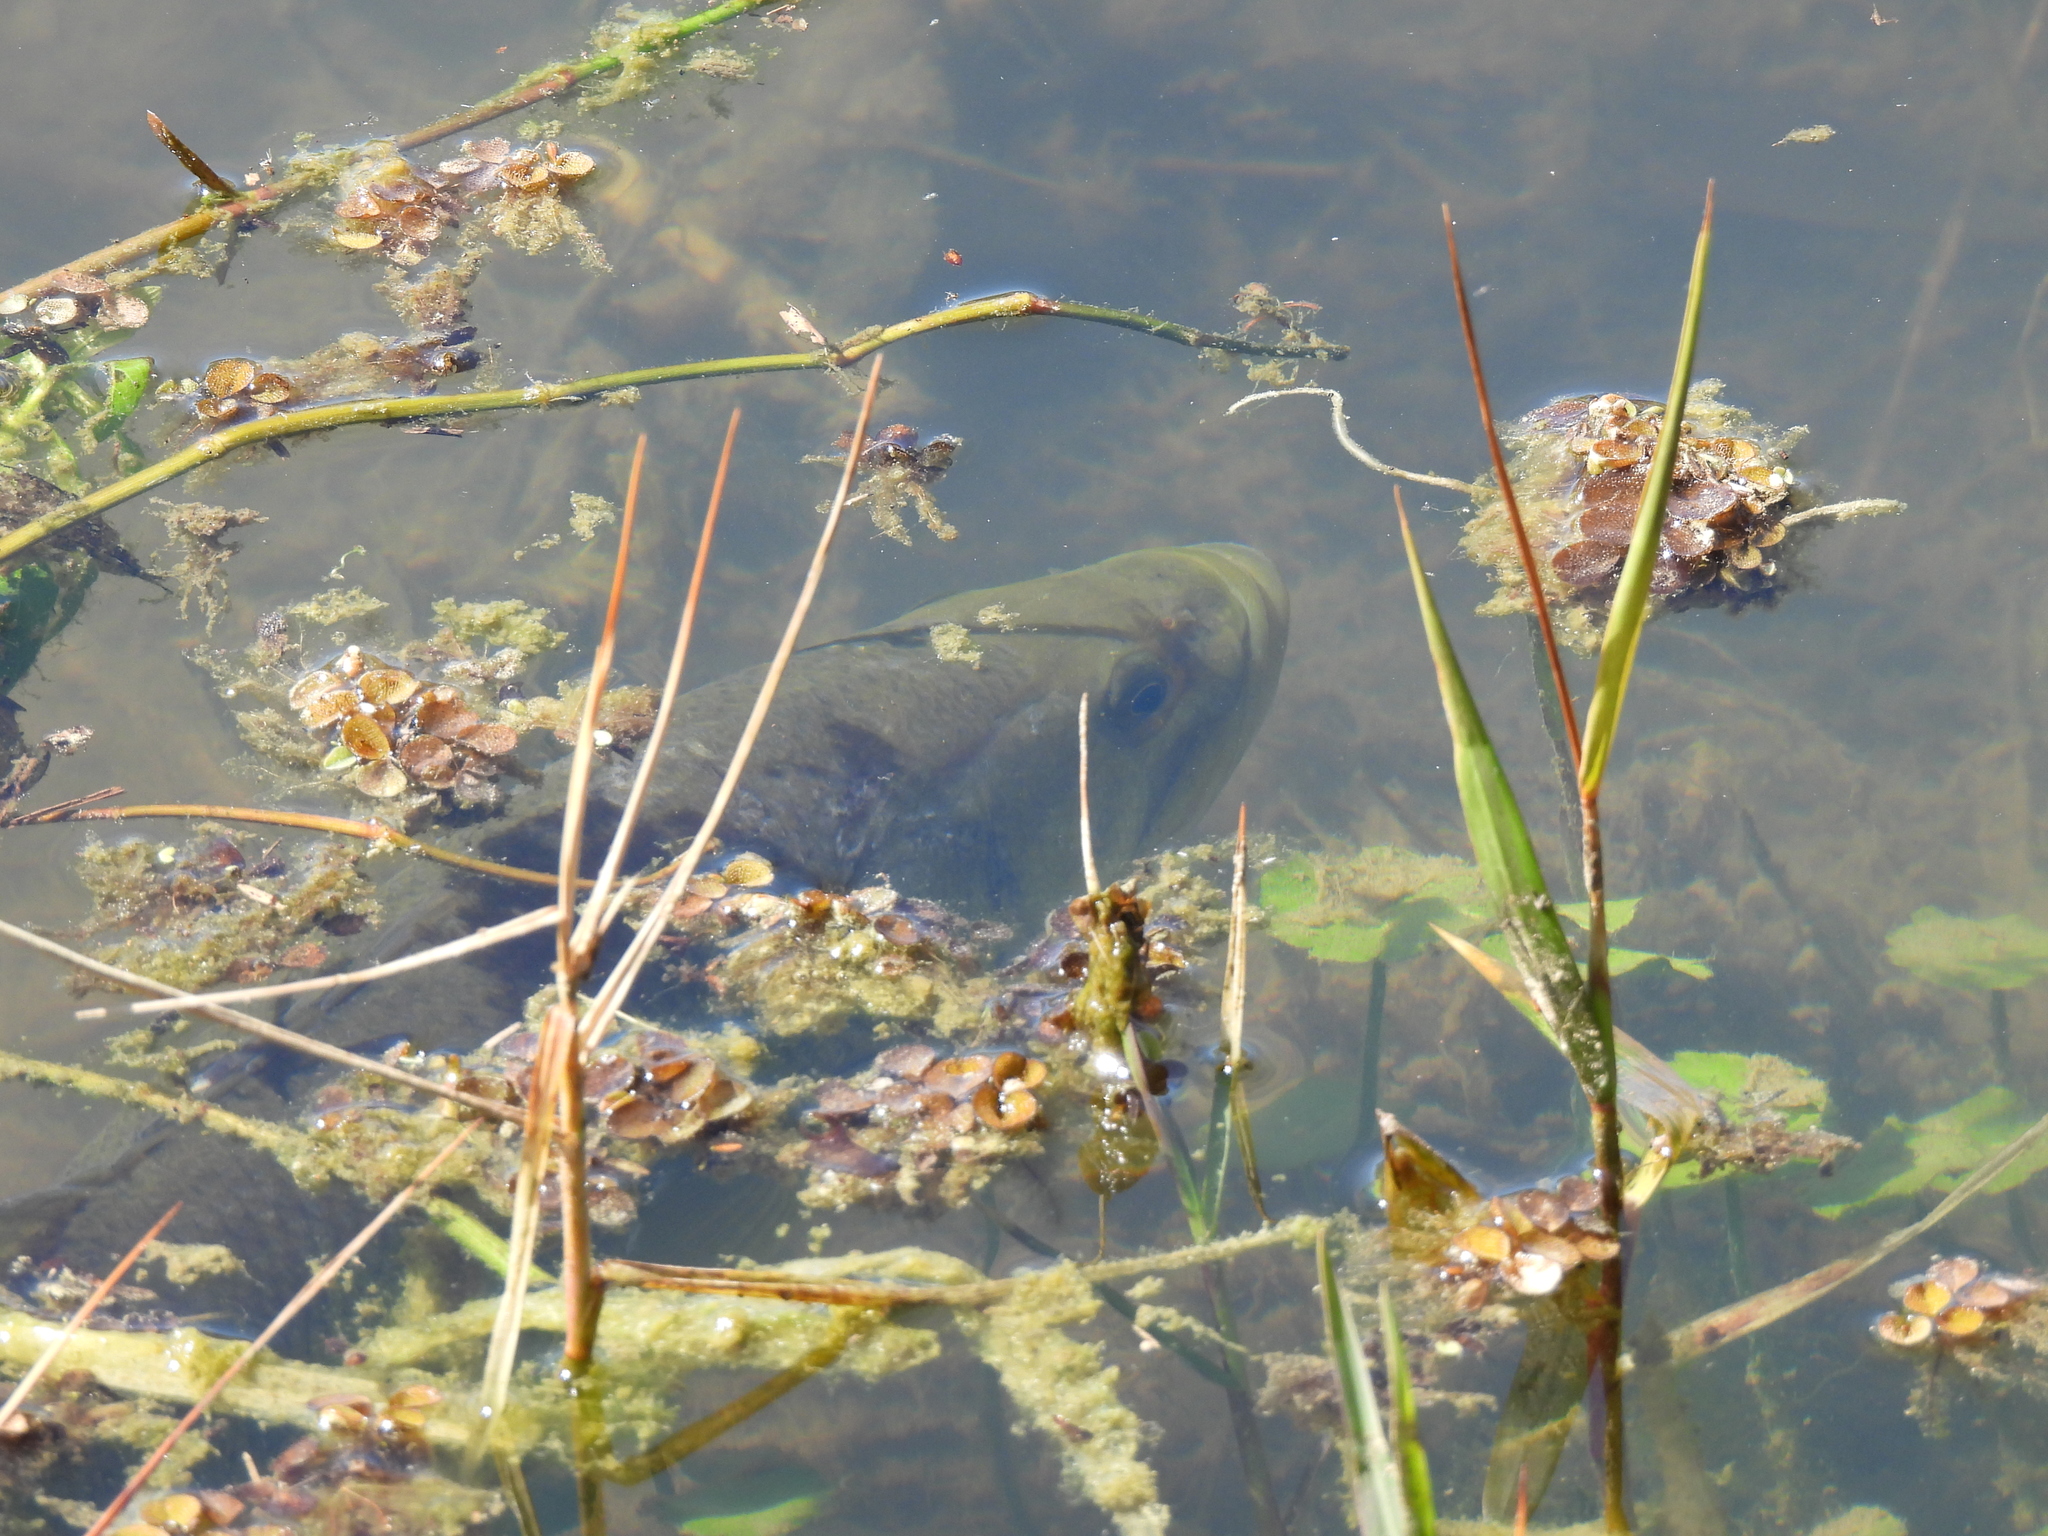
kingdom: Animalia
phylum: Chordata
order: Perciformes
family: Centrarchidae
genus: Micropterus
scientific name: Micropterus
